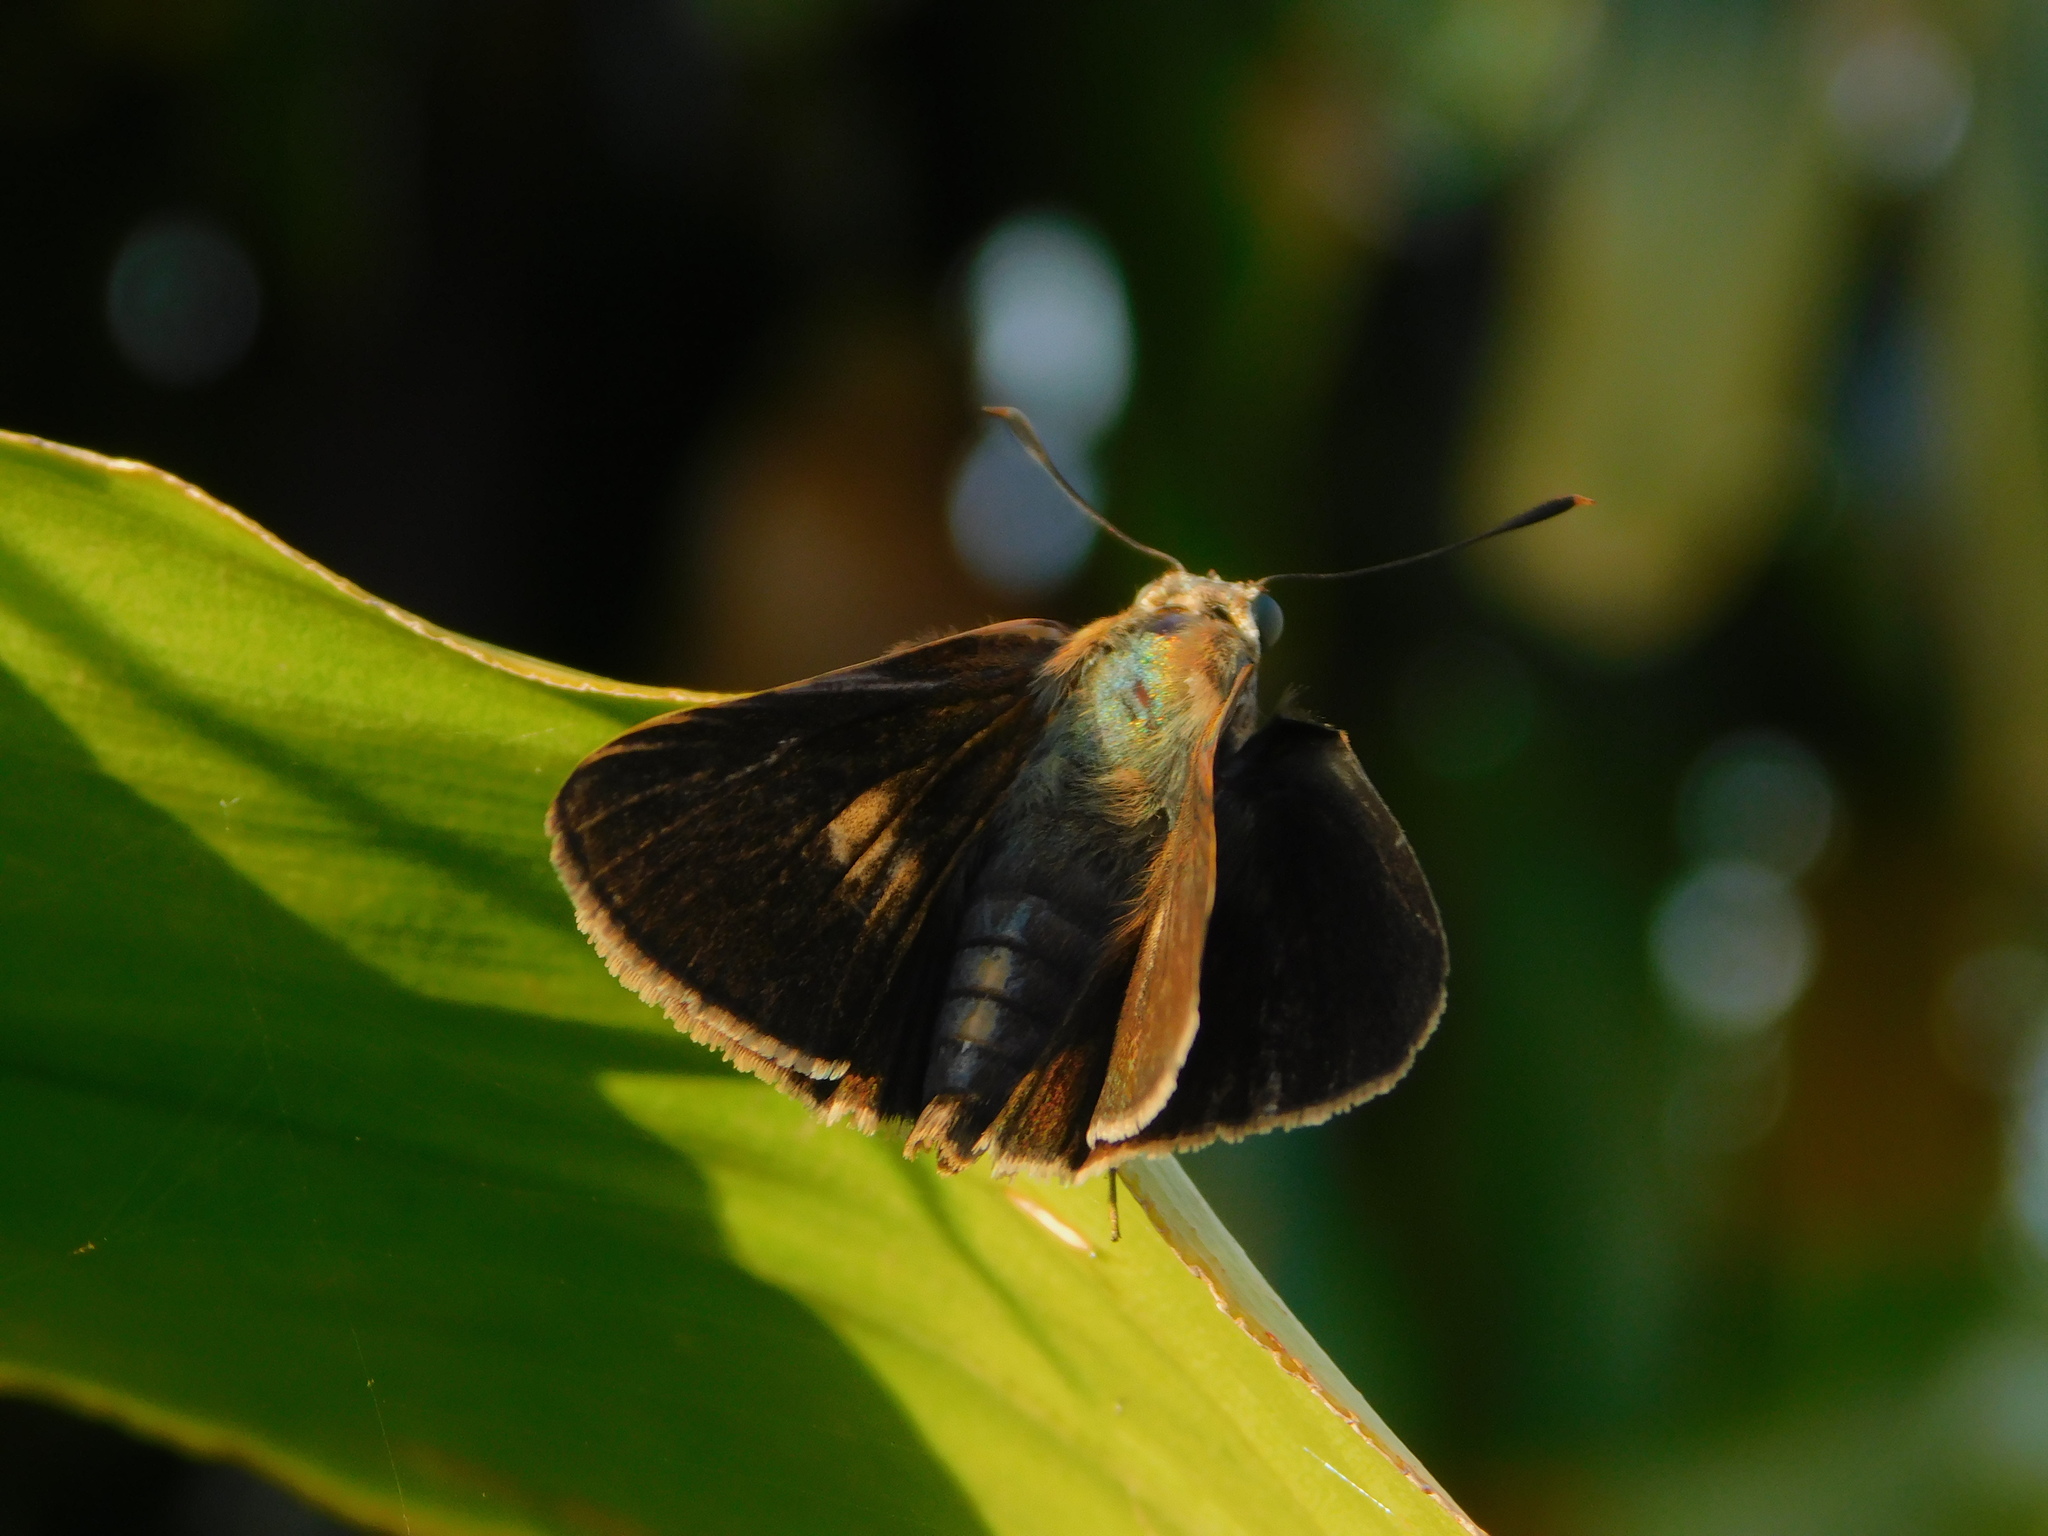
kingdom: Animalia
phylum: Arthropoda
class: Insecta
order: Lepidoptera
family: Hesperiidae
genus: Asbolis
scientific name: Asbolis capucinus
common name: Monk skipper
